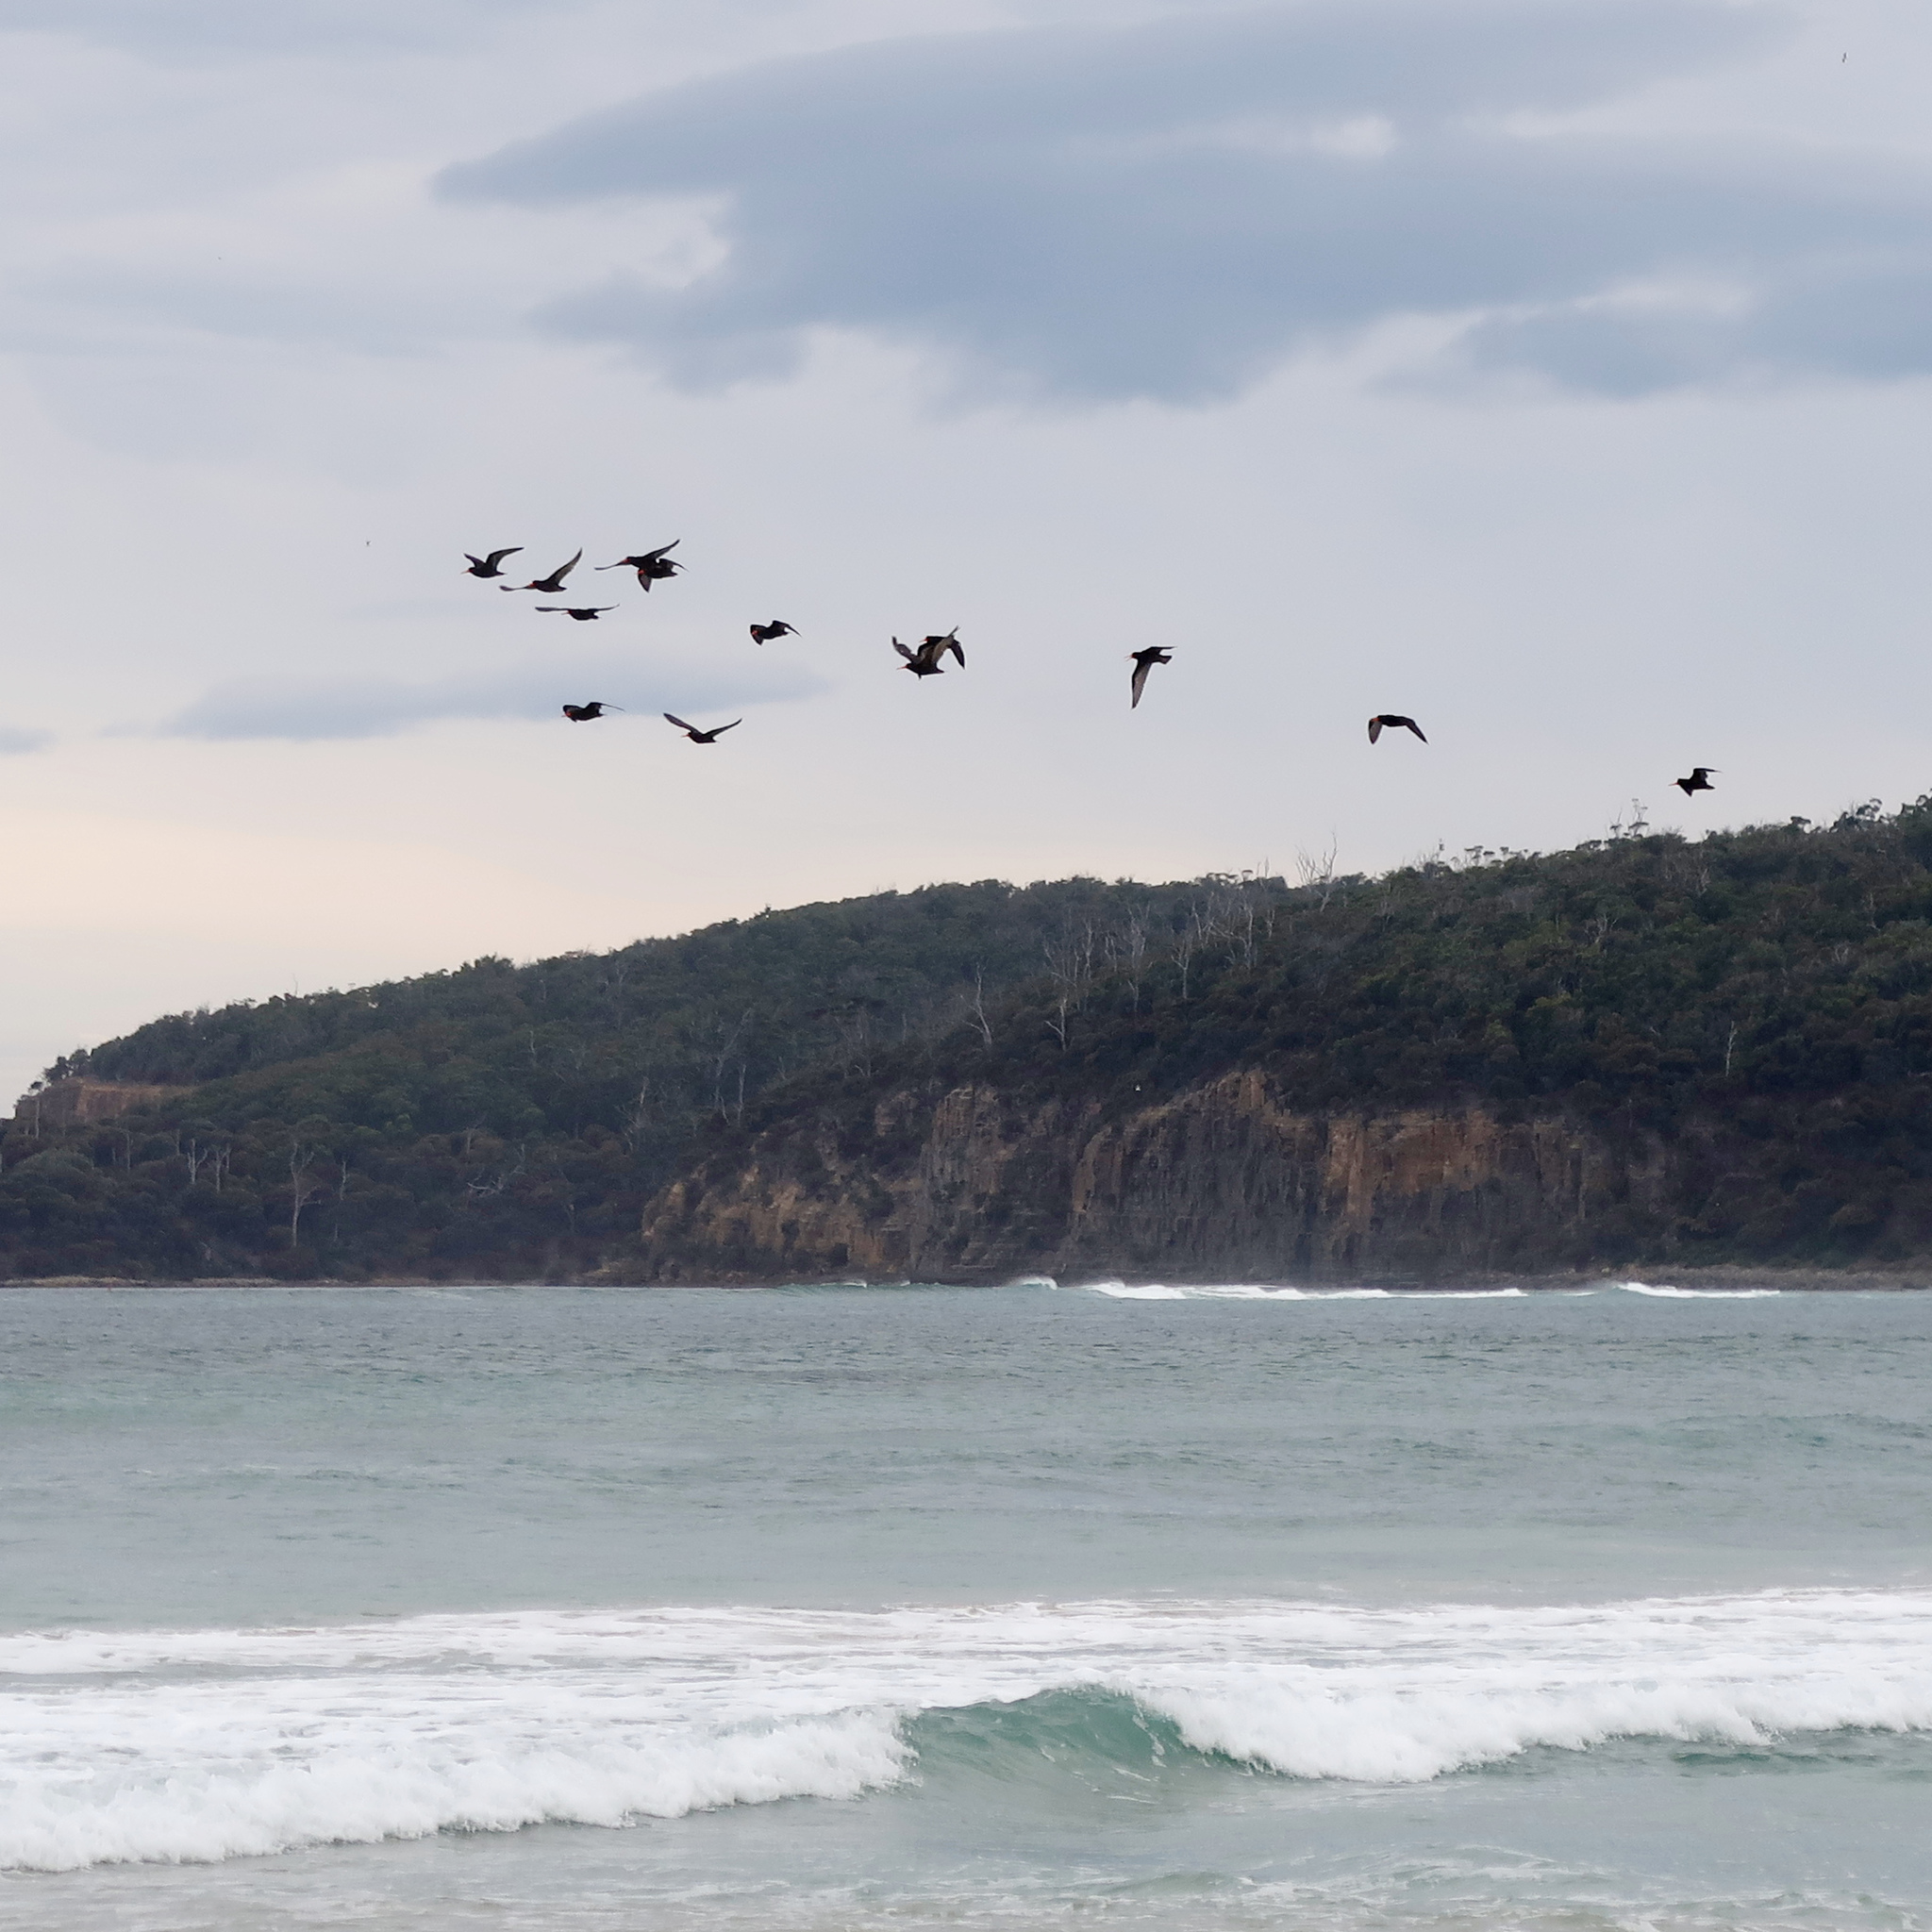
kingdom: Animalia
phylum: Chordata
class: Aves
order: Charadriiformes
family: Haematopodidae
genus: Haematopus
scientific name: Haematopus fuliginosus
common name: Sooty oystercatcher
